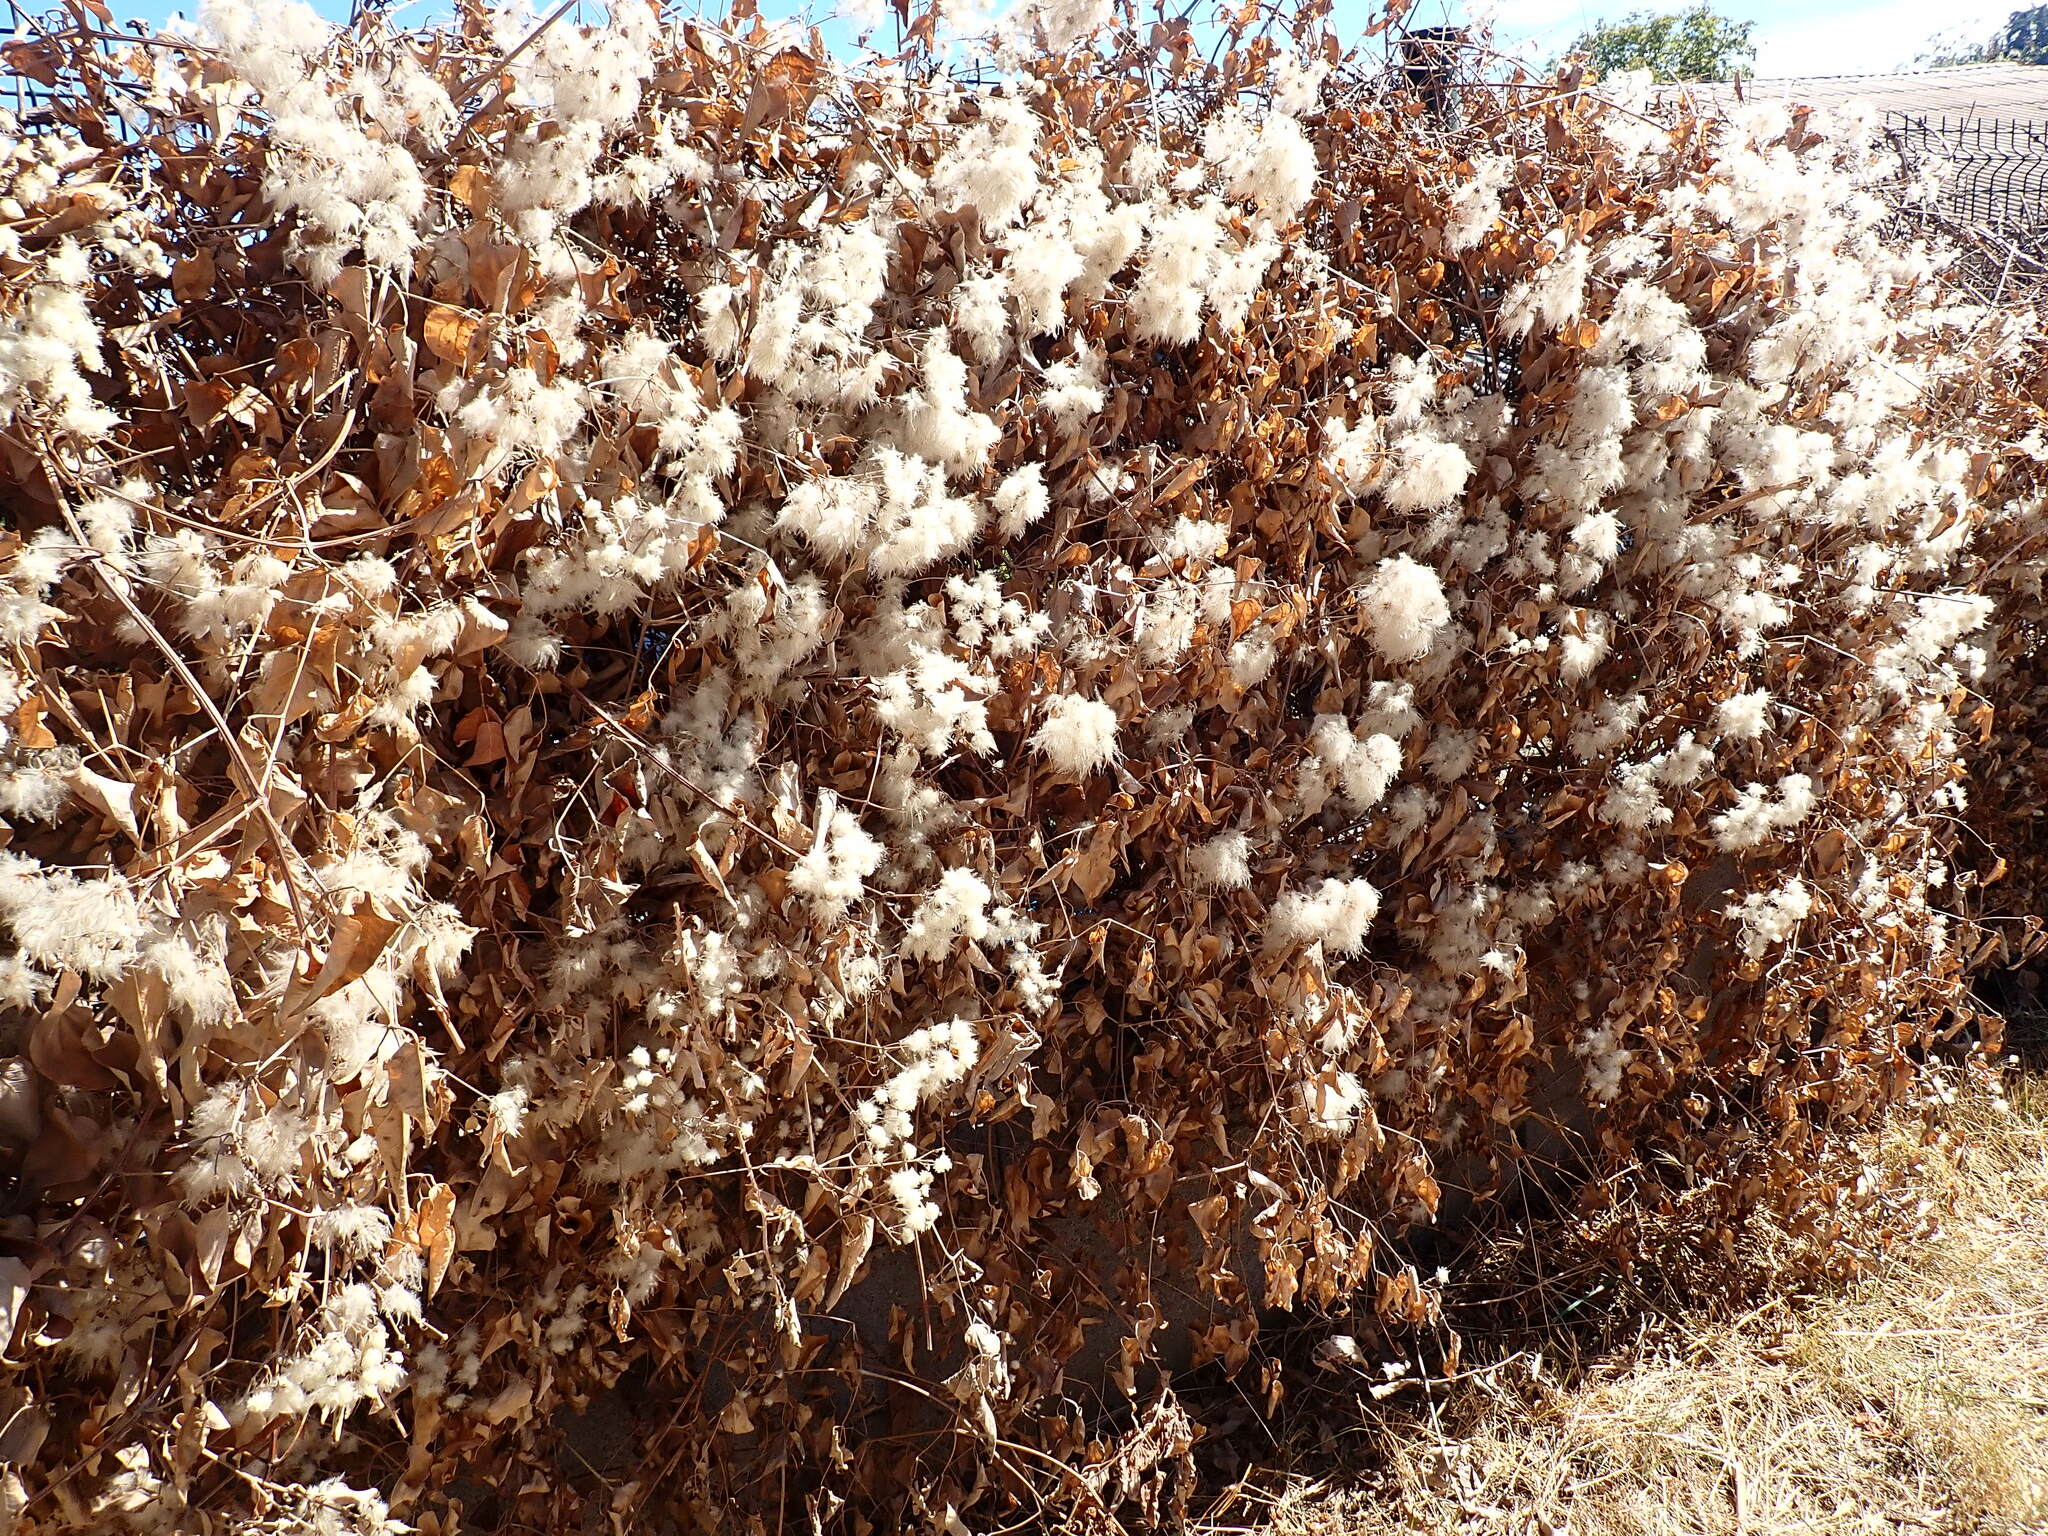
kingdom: Plantae
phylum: Tracheophyta
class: Magnoliopsida
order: Ranunculales
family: Ranunculaceae
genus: Clematis
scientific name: Clematis vitalba
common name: Evergreen clematis
